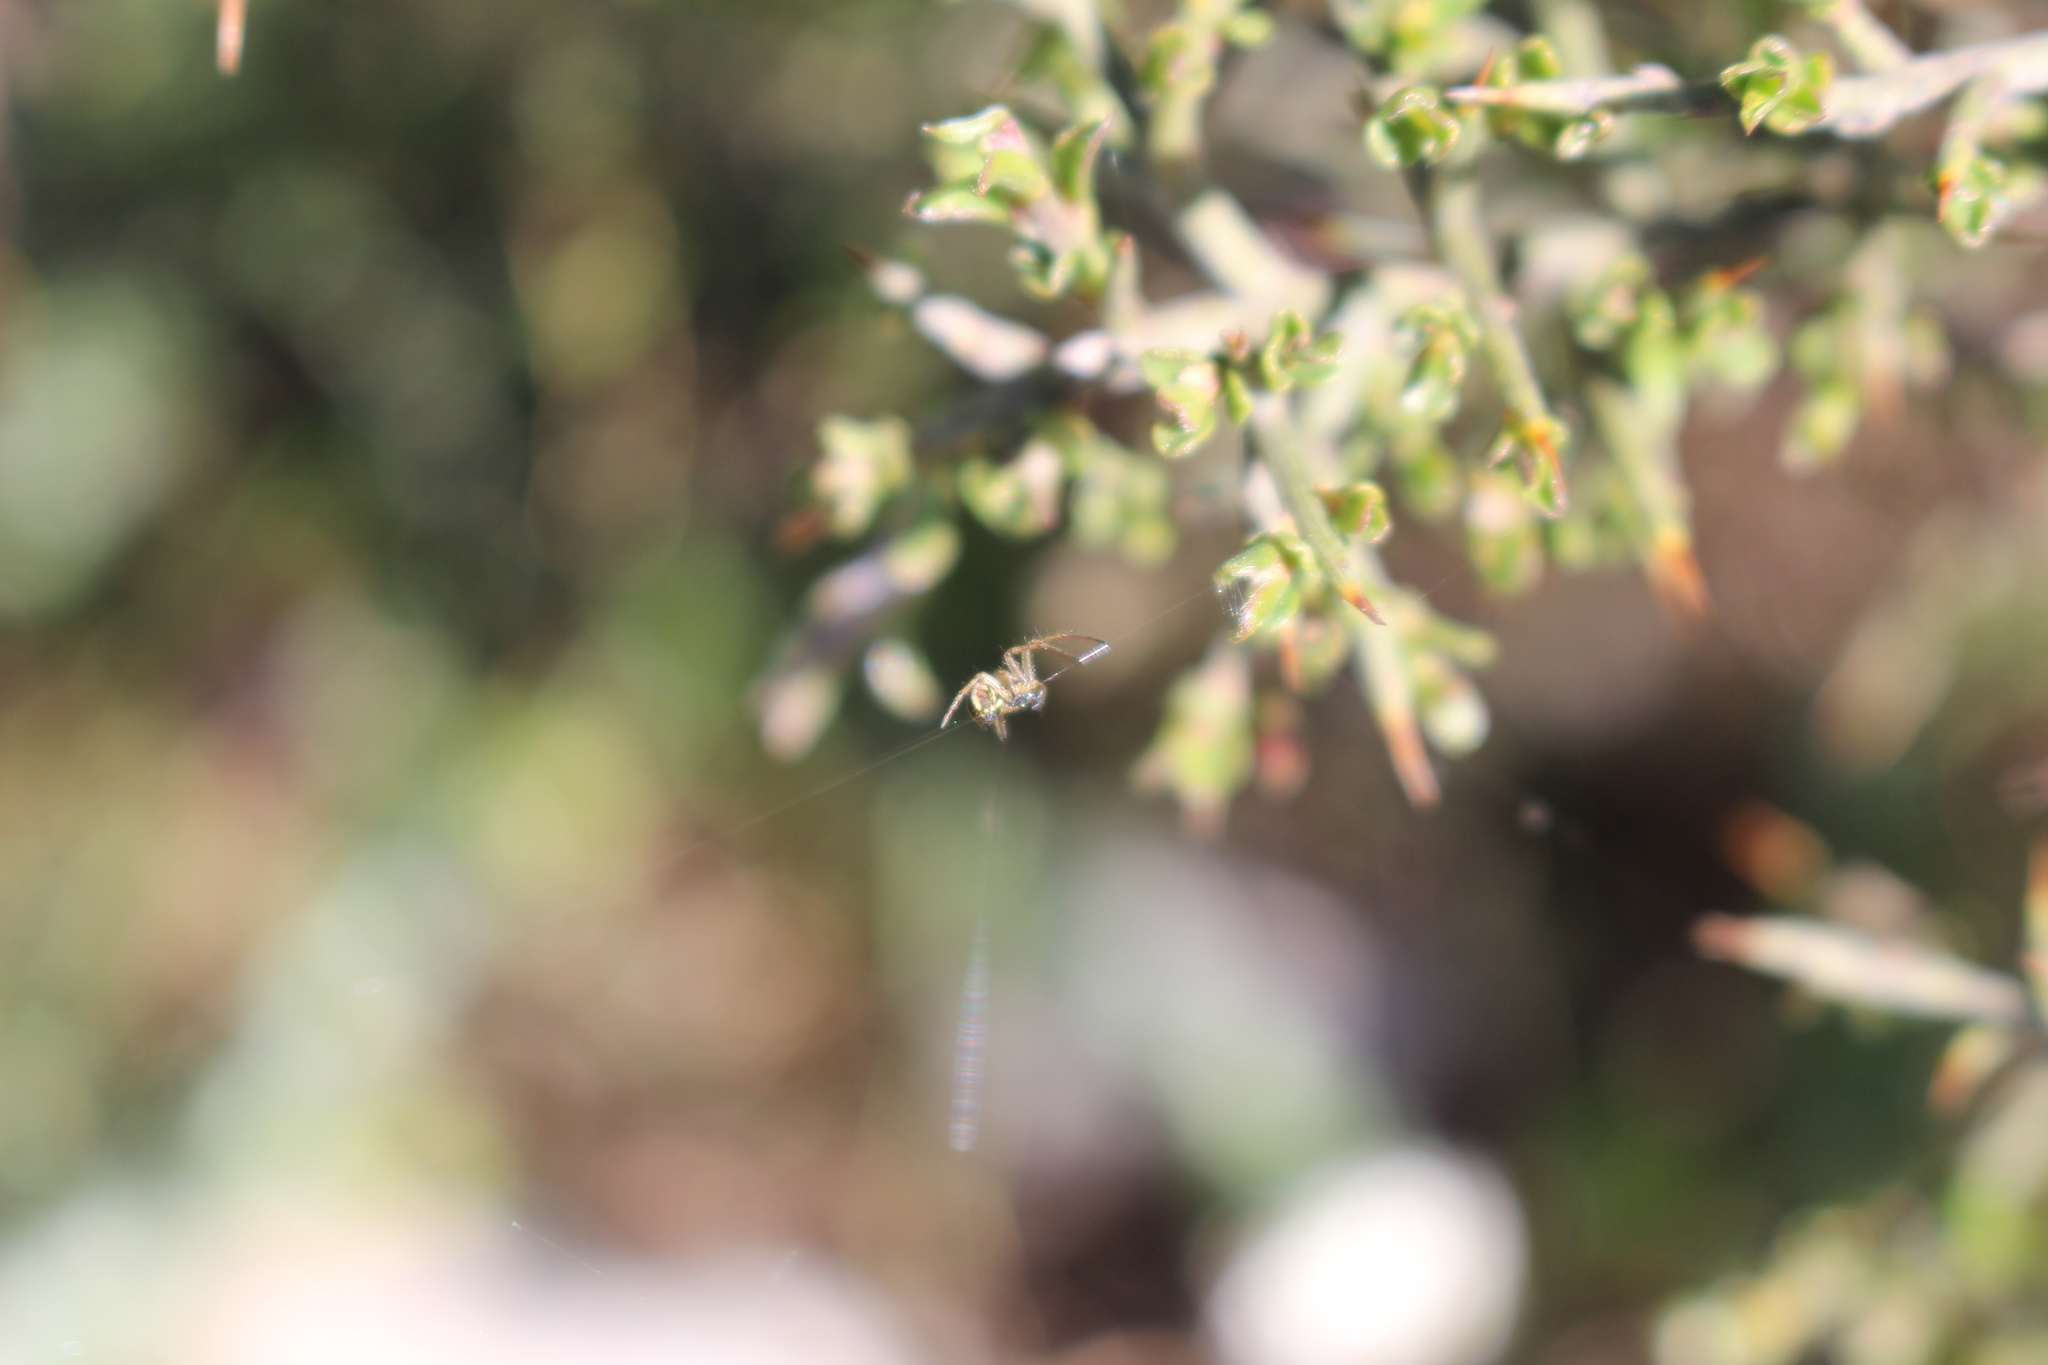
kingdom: Animalia
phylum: Arthropoda
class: Arachnida
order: Araneae
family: Araneidae
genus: Mangora
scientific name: Mangora acalypha
